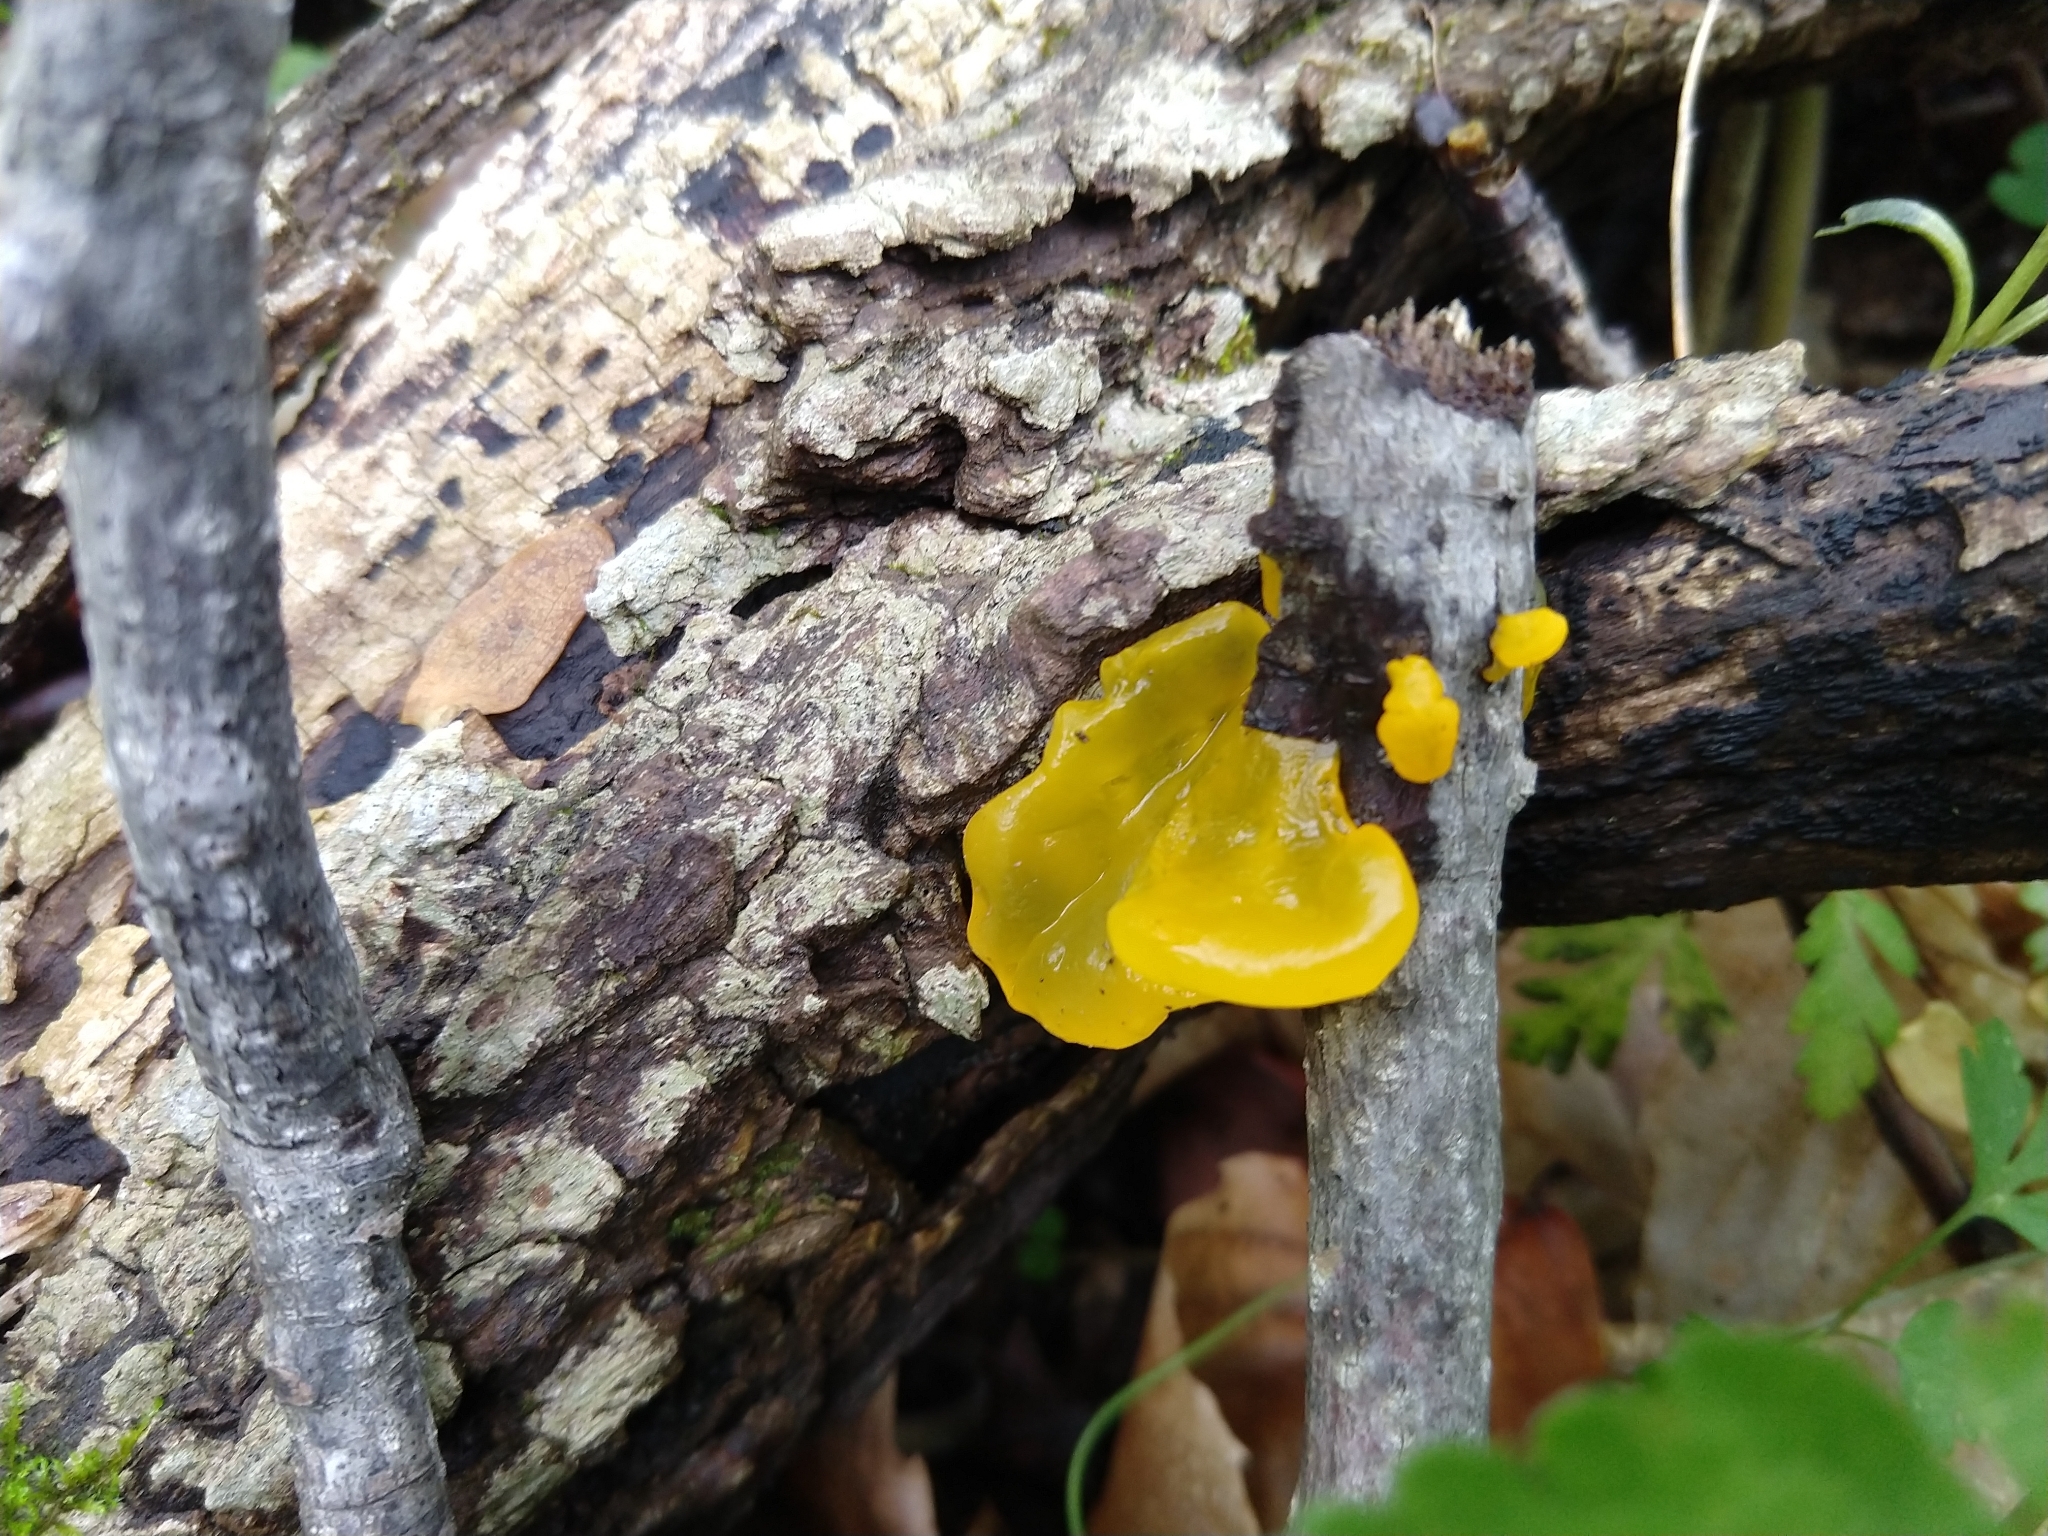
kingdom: Fungi
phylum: Basidiomycota
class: Tremellomycetes
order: Tremellales
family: Tremellaceae
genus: Tremella
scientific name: Tremella mesenterica
